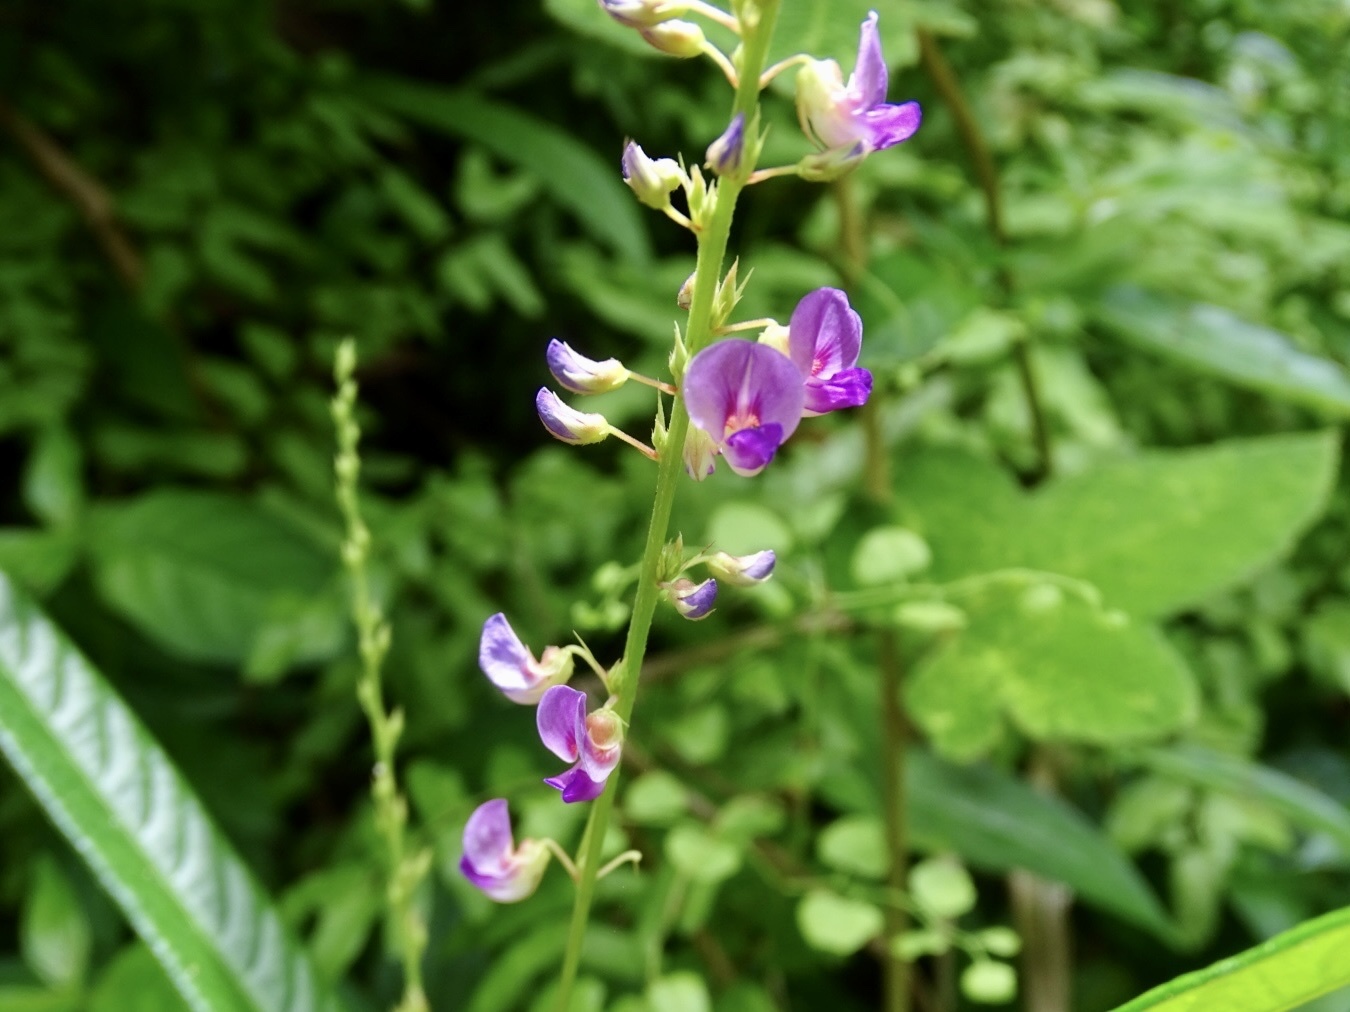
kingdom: Plantae
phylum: Tracheophyta
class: Magnoliopsida
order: Fabales
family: Fabaceae
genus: Tadehagi
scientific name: Tadehagi triquetrum
